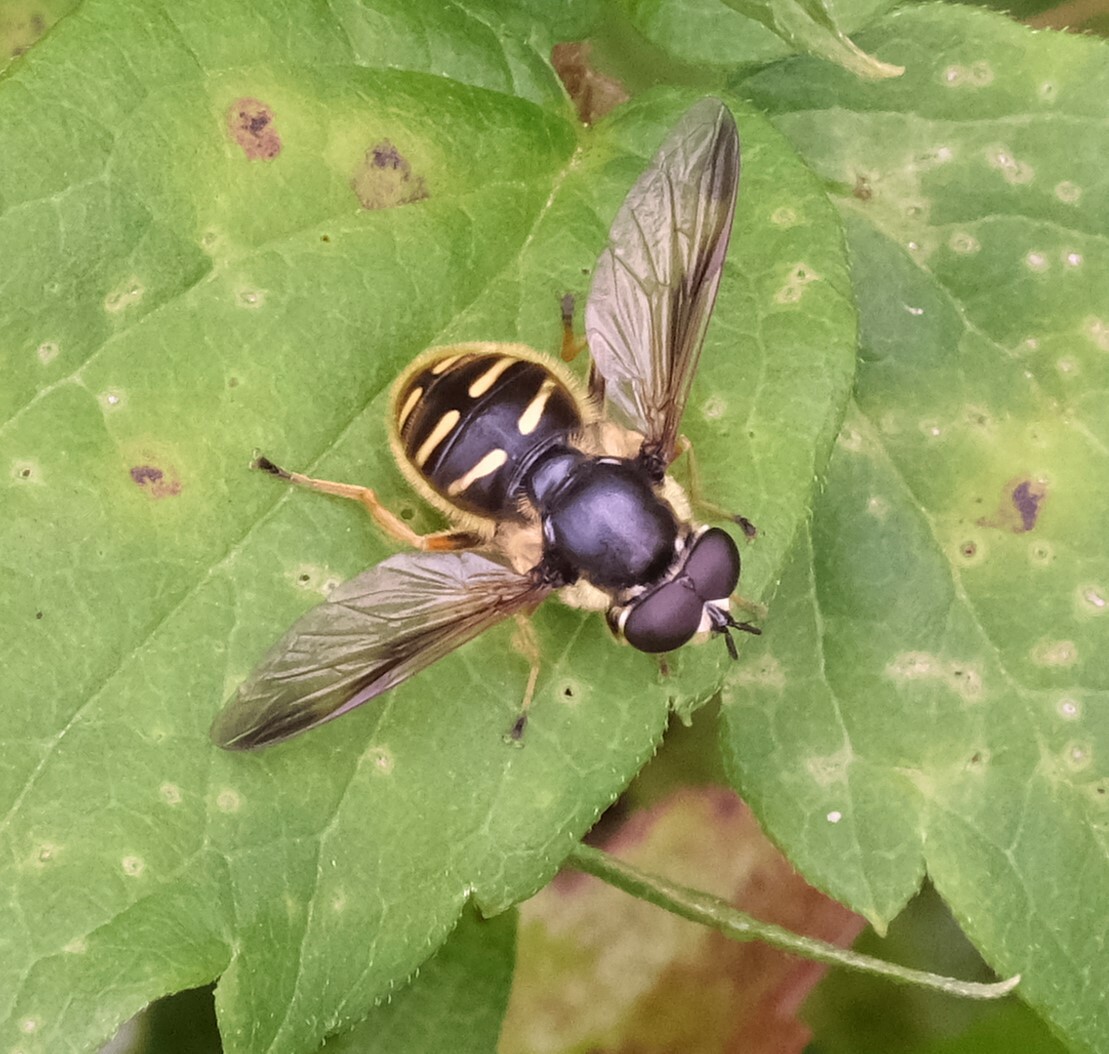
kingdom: Animalia
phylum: Arthropoda
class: Insecta
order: Diptera
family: Syrphidae
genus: Sericomyia
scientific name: Sericomyia chrysotoxoides
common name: Oblique-banded pond fly
